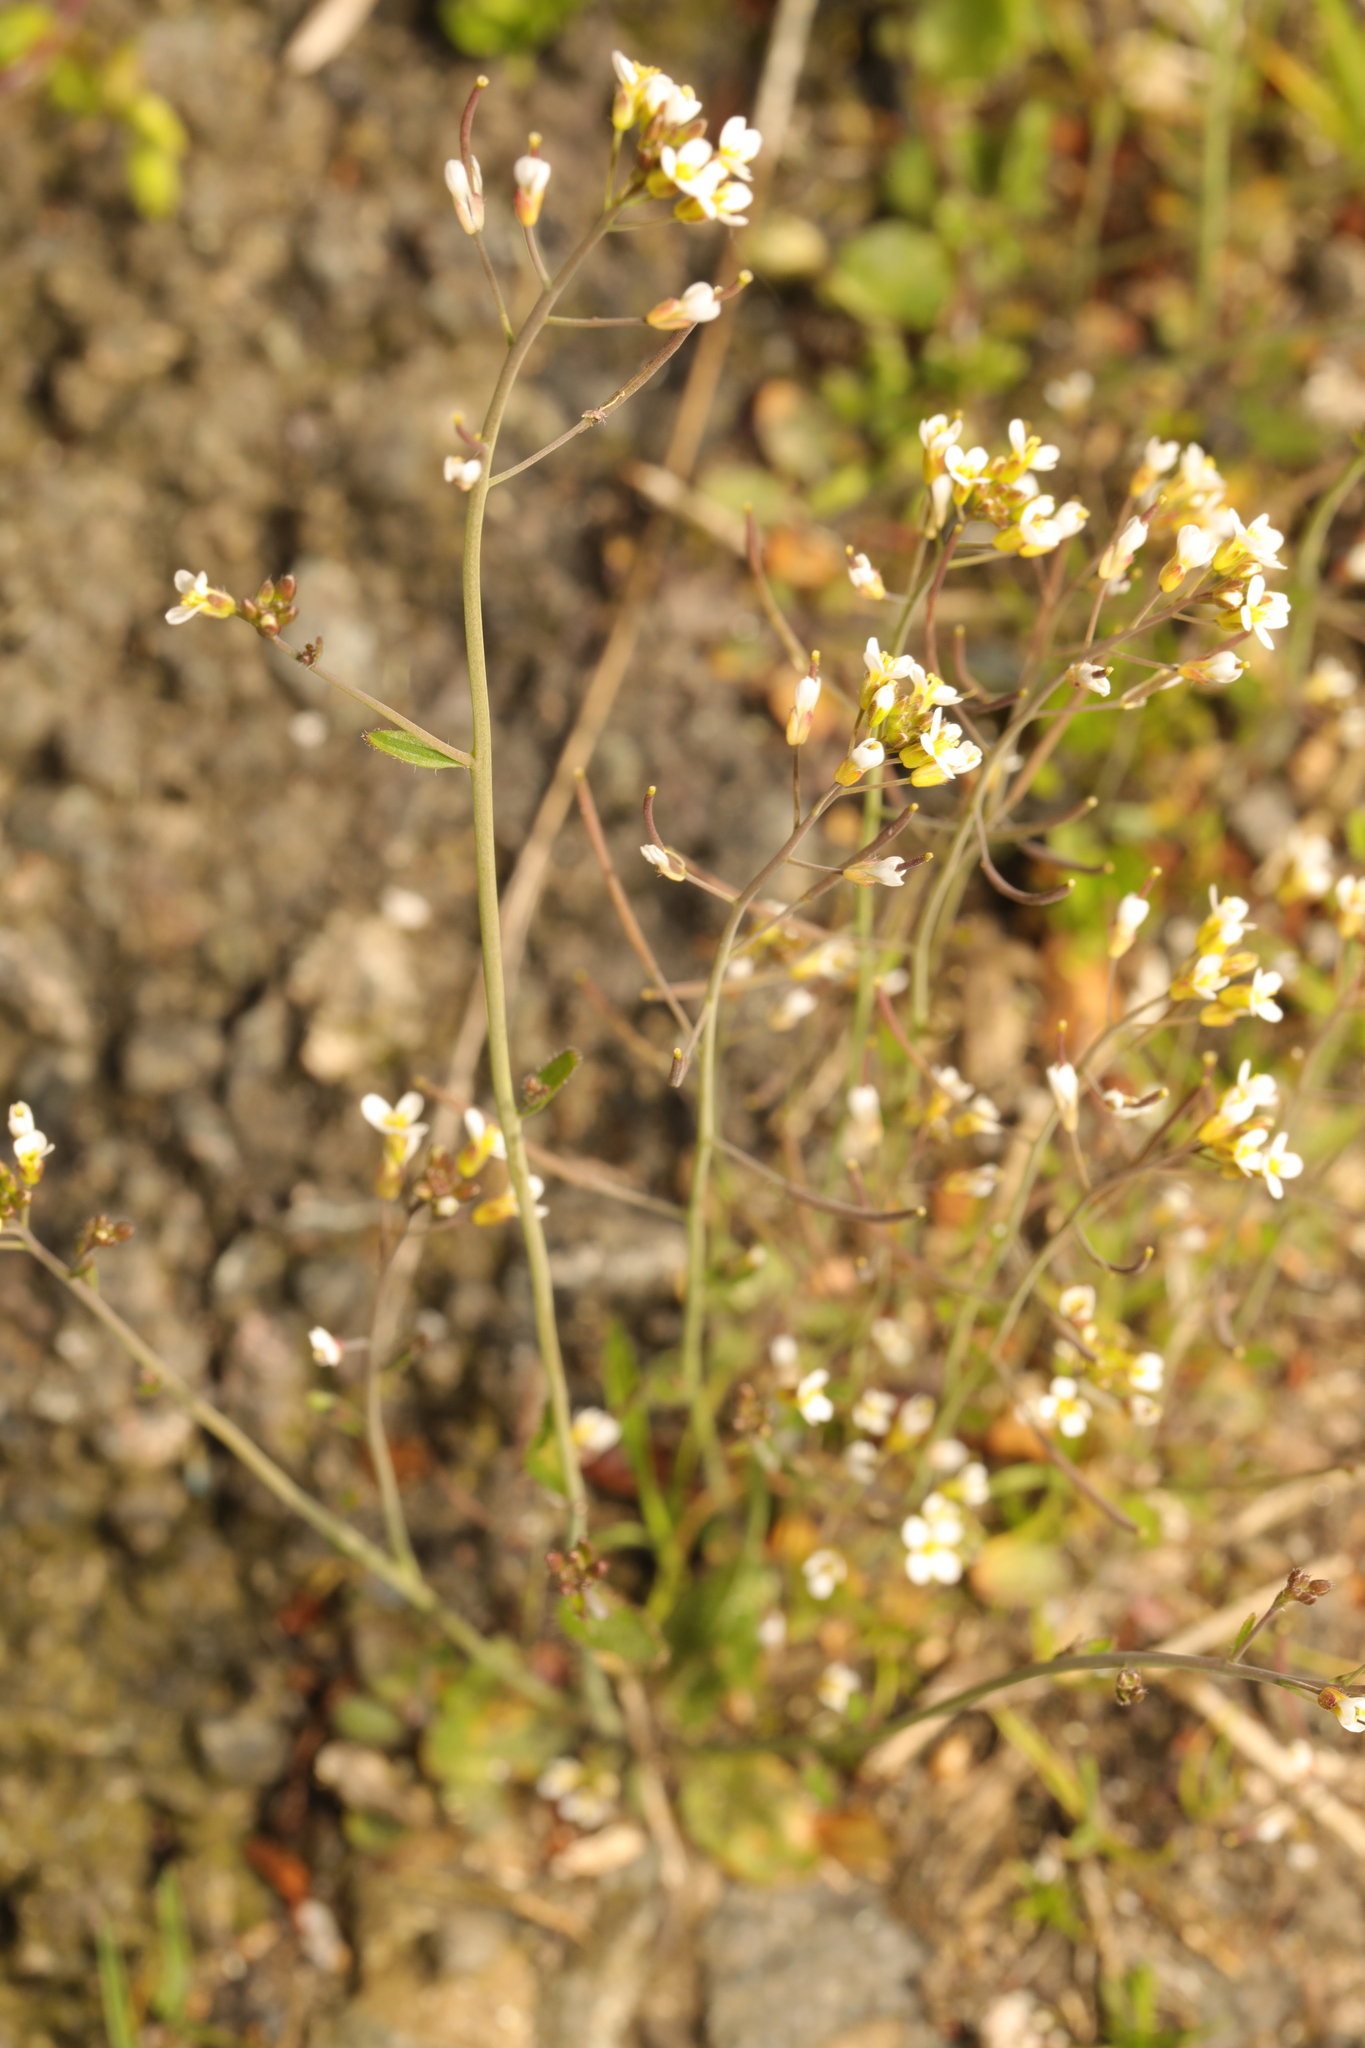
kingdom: Plantae
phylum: Tracheophyta
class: Magnoliopsida
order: Brassicales
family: Brassicaceae
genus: Arabidopsis
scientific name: Arabidopsis thaliana
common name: Thale cress
